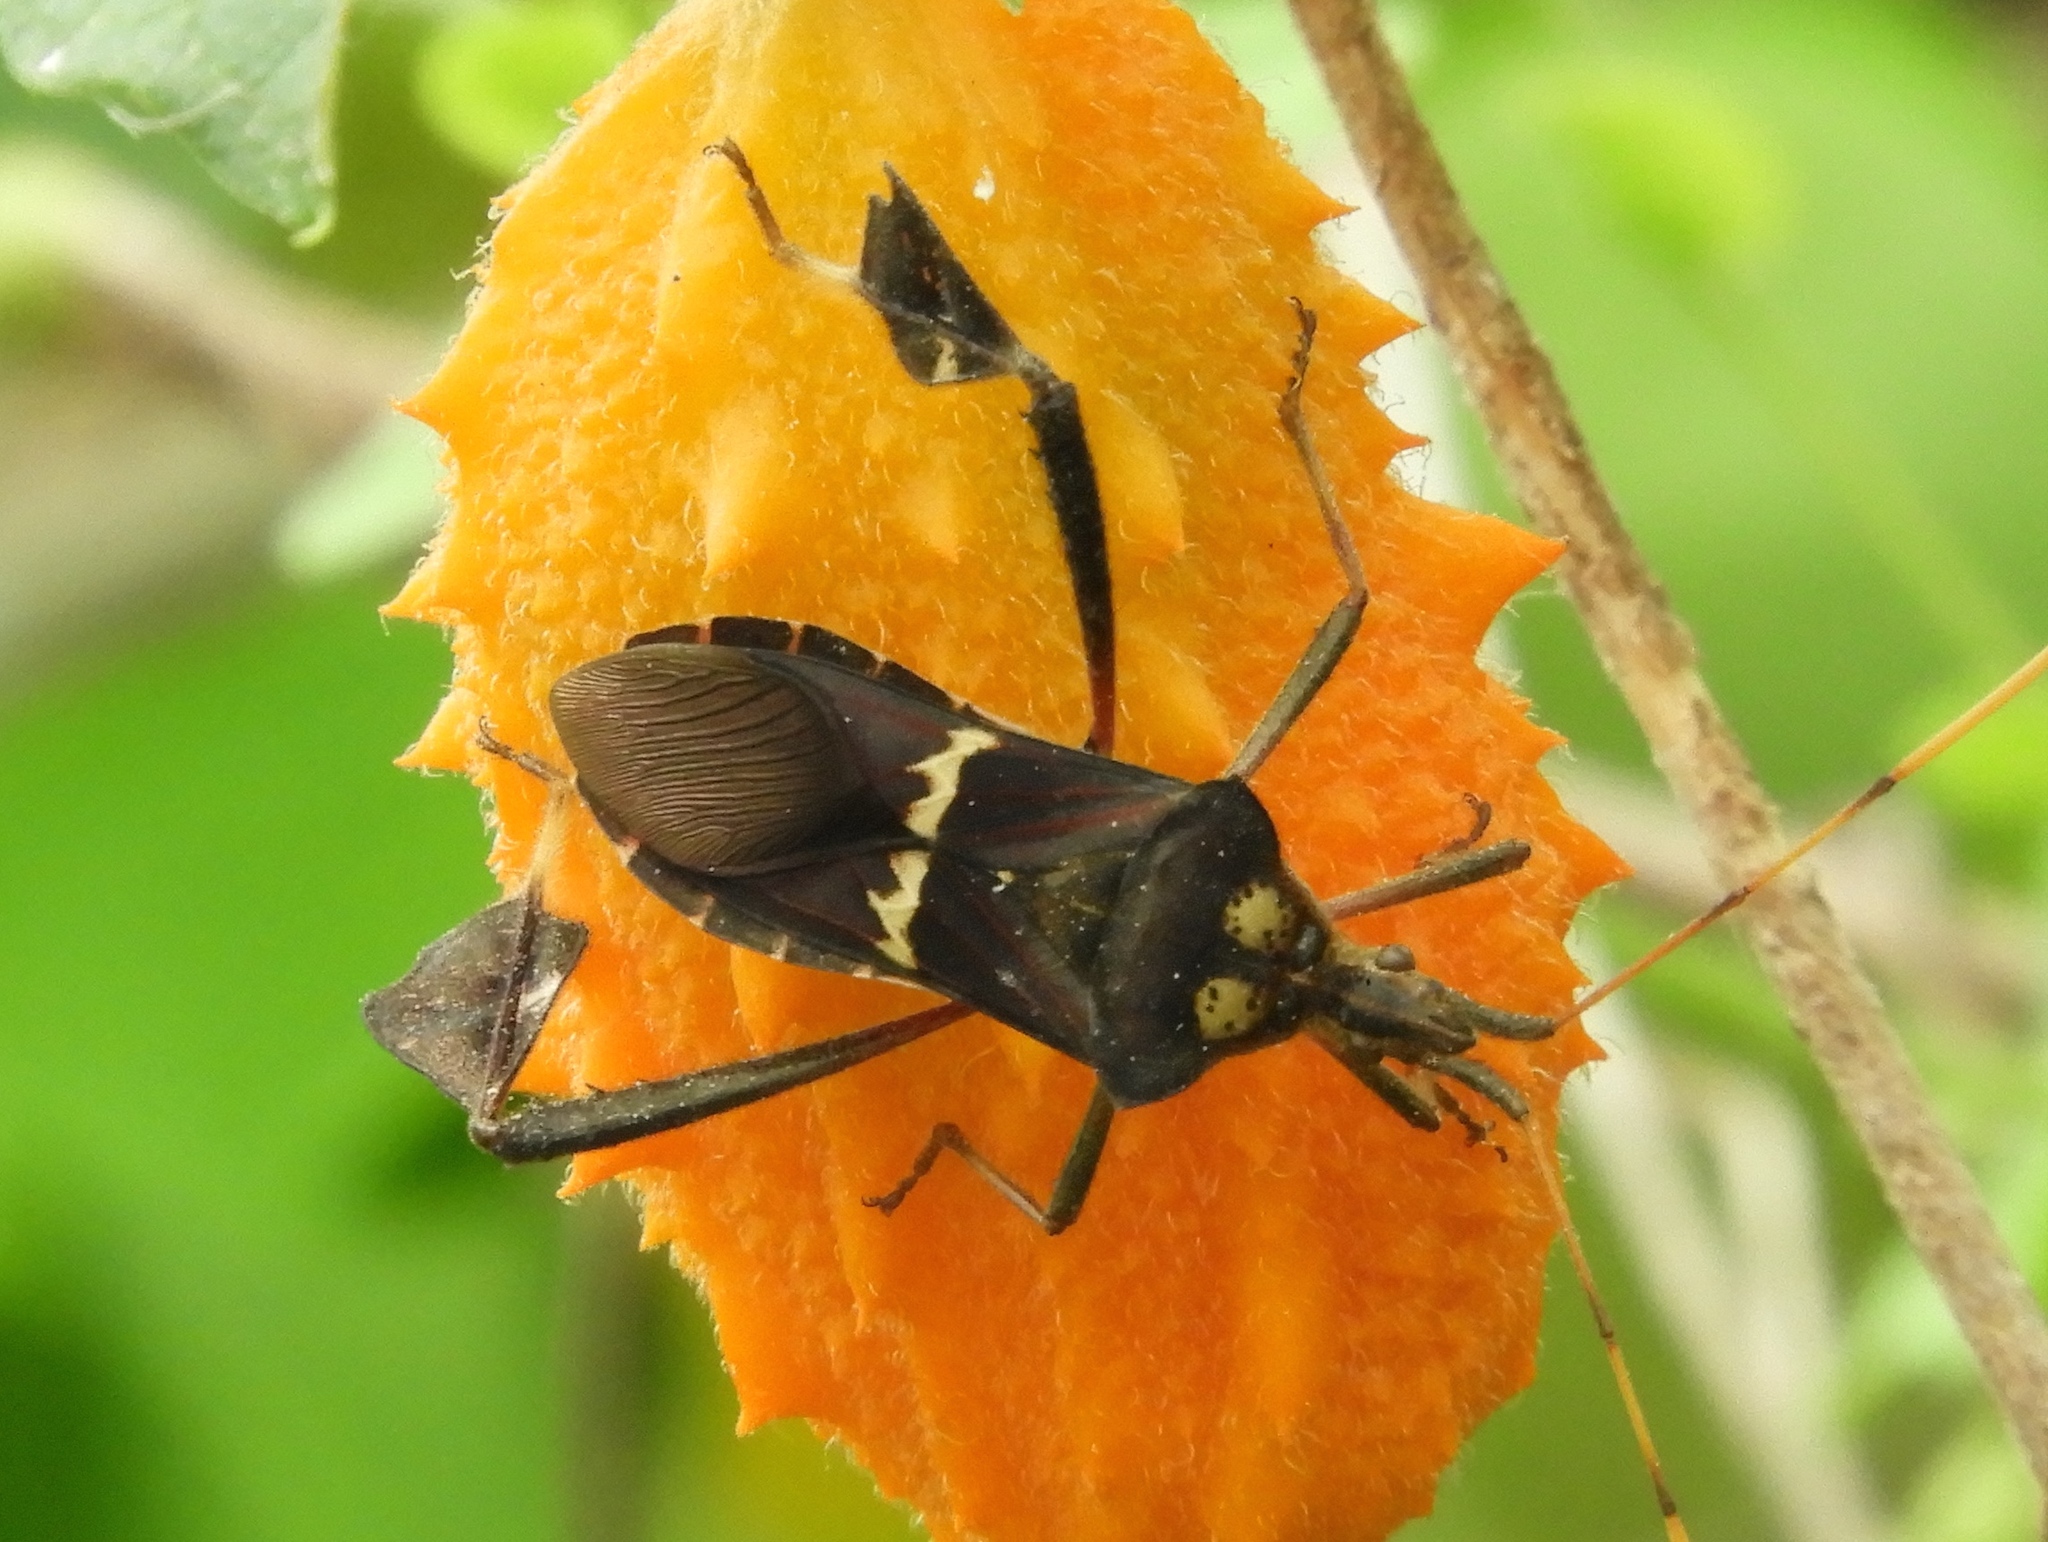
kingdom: Animalia
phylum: Arthropoda
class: Insecta
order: Hemiptera
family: Coreidae
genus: Leptoglossus
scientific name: Leptoglossus zonatus
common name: Large-legged bug
